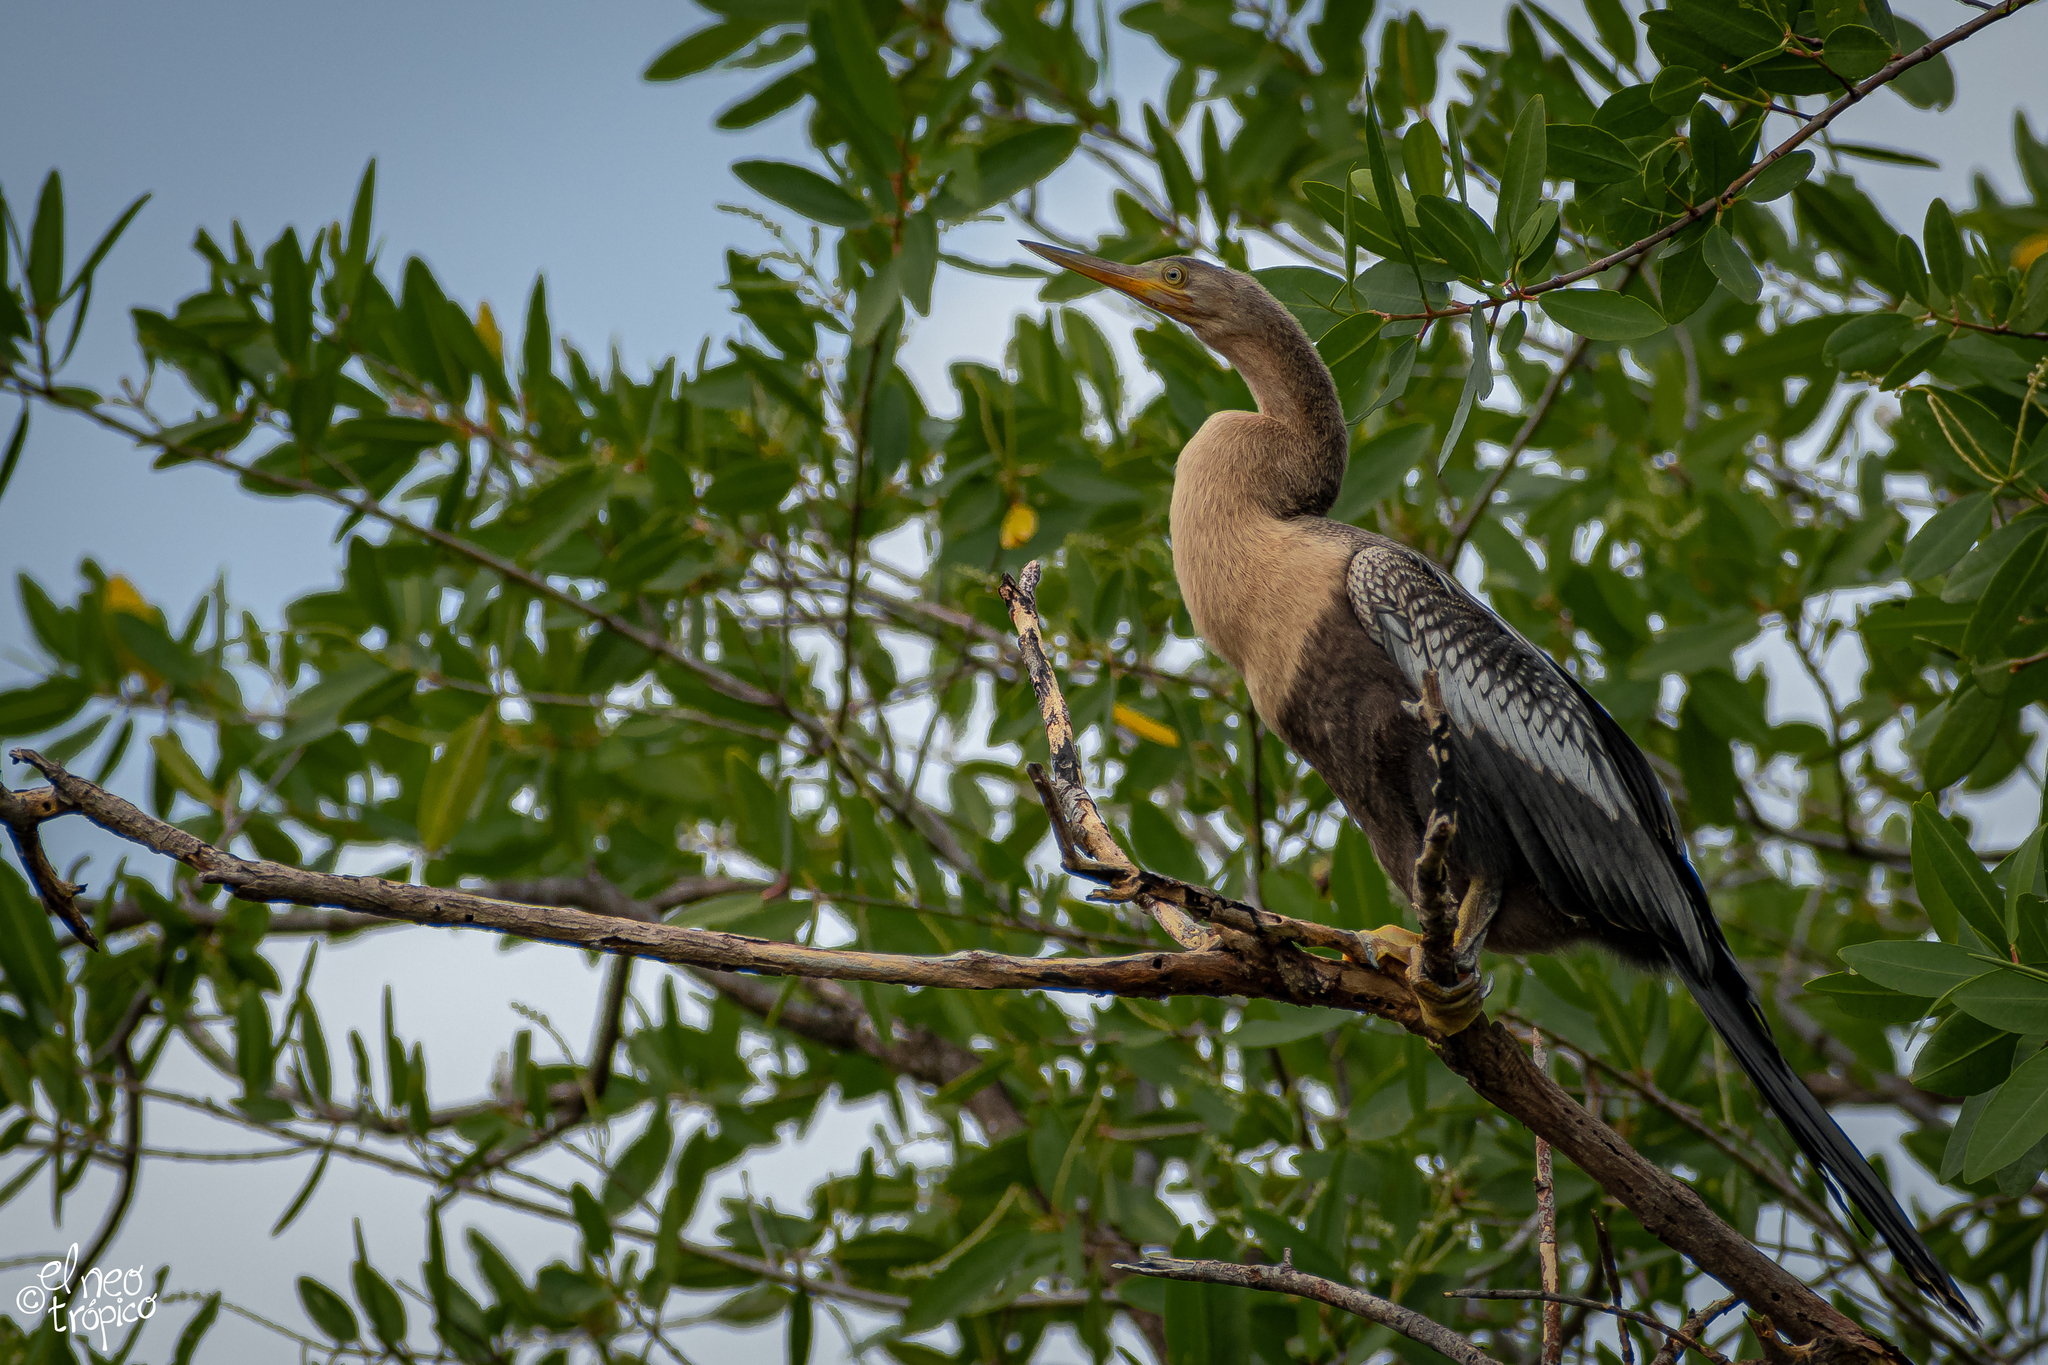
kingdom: Animalia
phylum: Chordata
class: Aves
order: Suliformes
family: Anhingidae
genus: Anhinga
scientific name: Anhinga anhinga
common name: Anhinga
